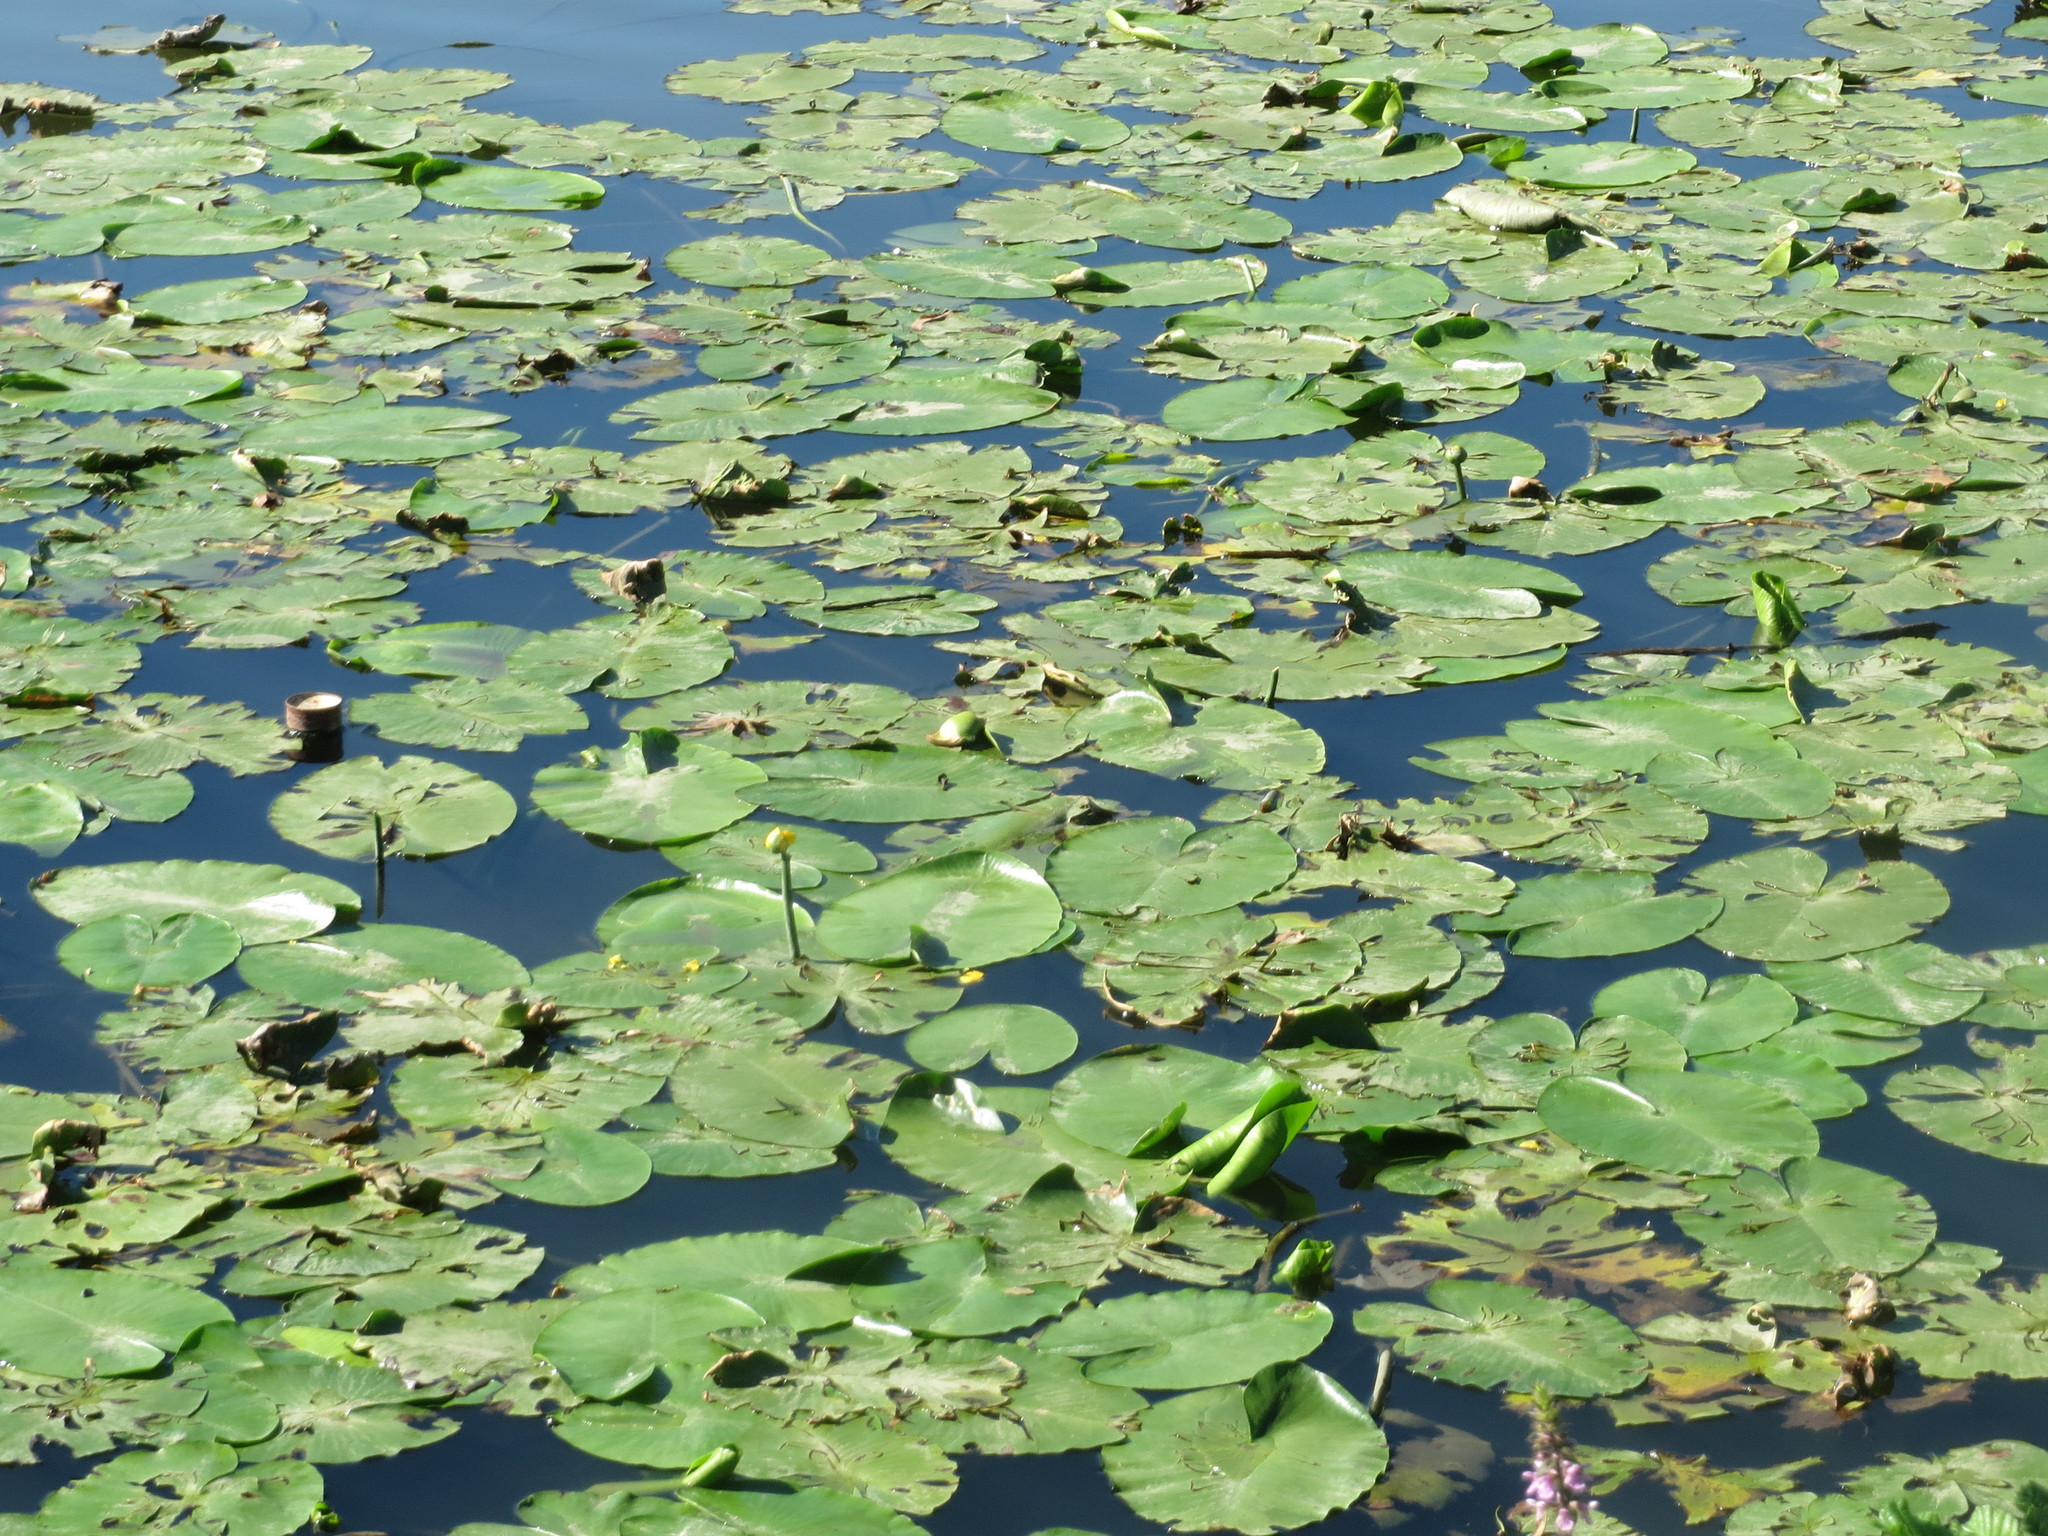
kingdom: Plantae
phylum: Tracheophyta
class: Magnoliopsida
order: Nymphaeales
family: Nymphaeaceae
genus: Nuphar
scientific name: Nuphar lutea
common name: Yellow water-lily
